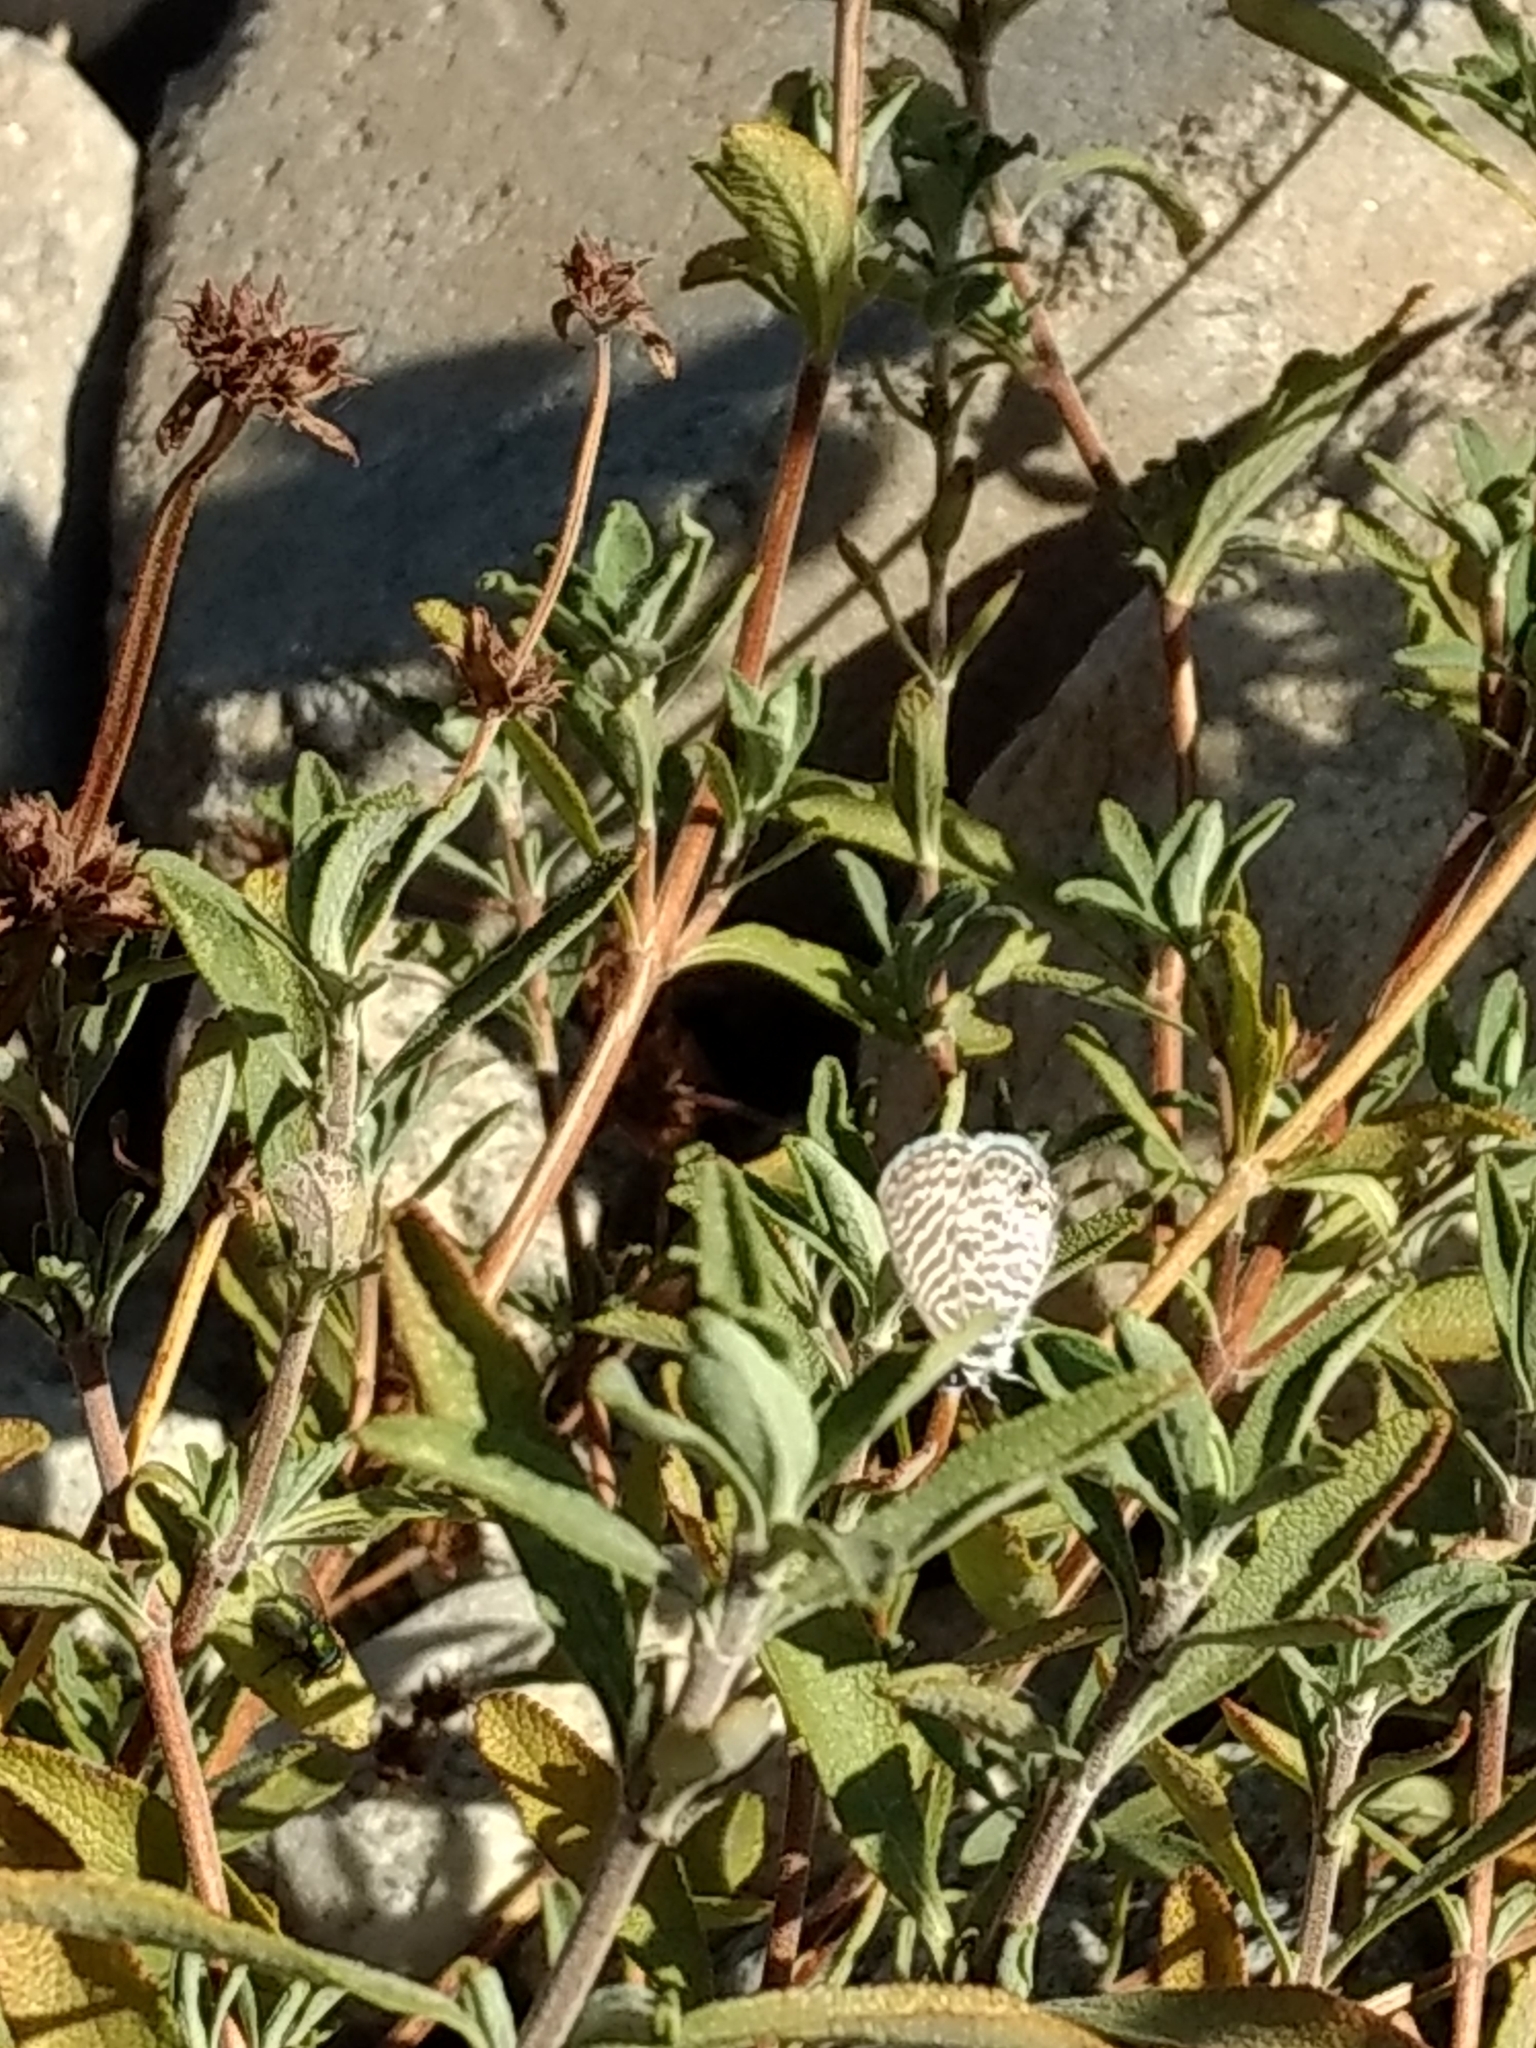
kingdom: Animalia
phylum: Arthropoda
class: Insecta
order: Lepidoptera
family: Lycaenidae
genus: Leptotes
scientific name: Leptotes marina
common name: Marine blue
